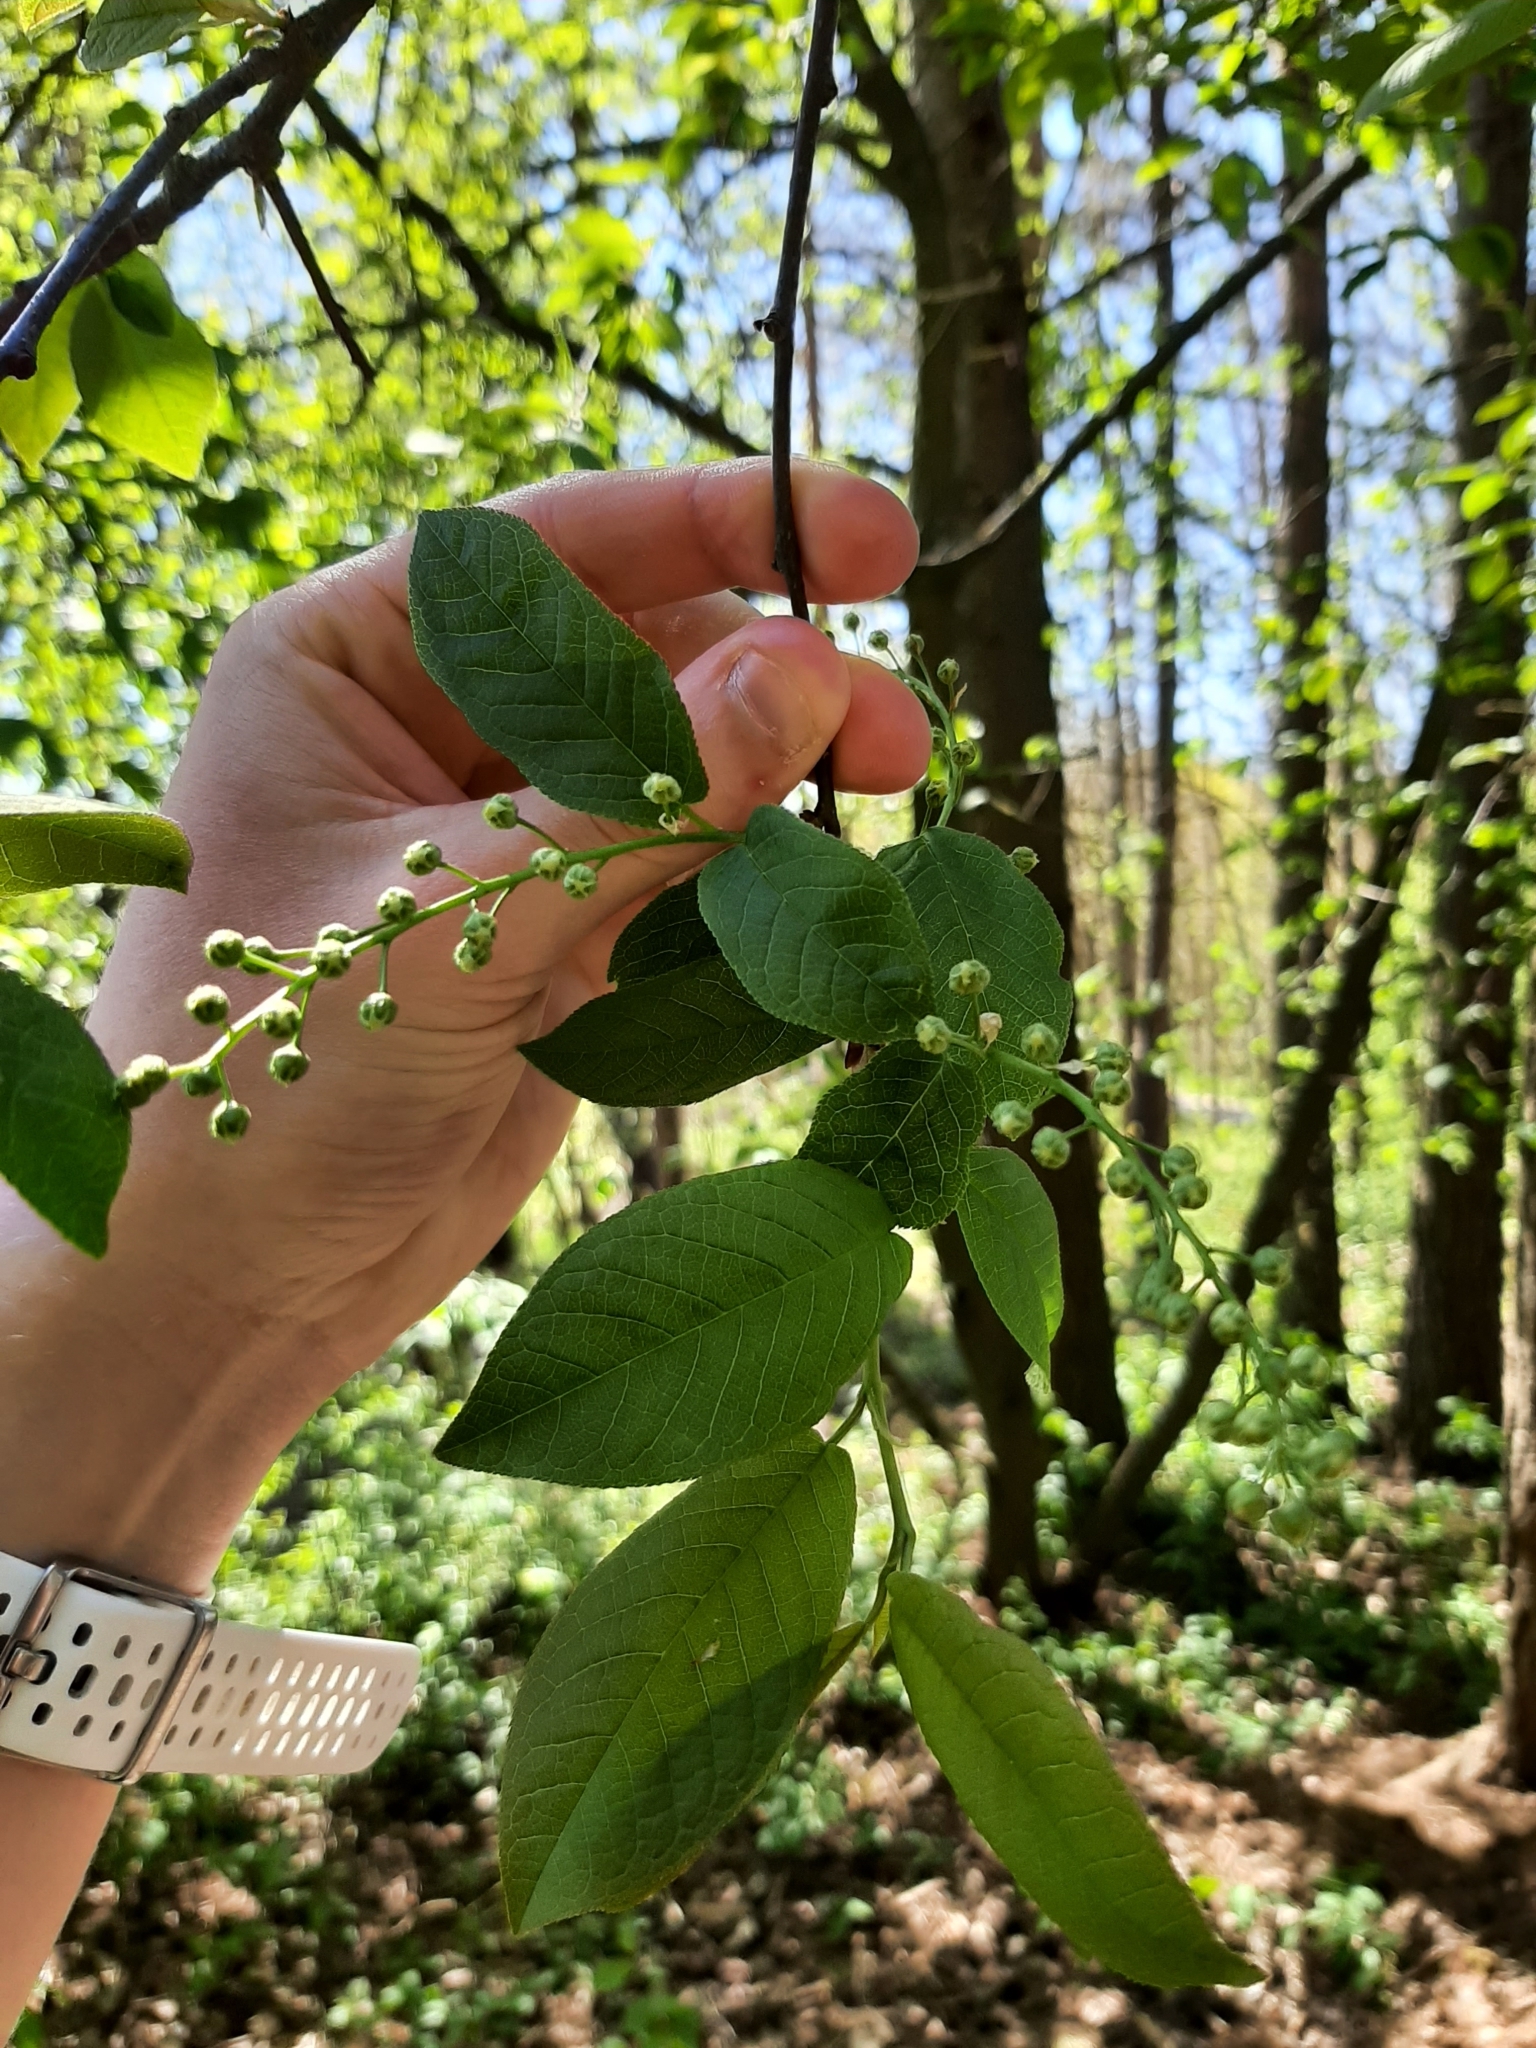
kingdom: Plantae
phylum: Tracheophyta
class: Magnoliopsida
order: Rosales
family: Rosaceae
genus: Prunus
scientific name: Prunus padus
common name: Bird cherry
